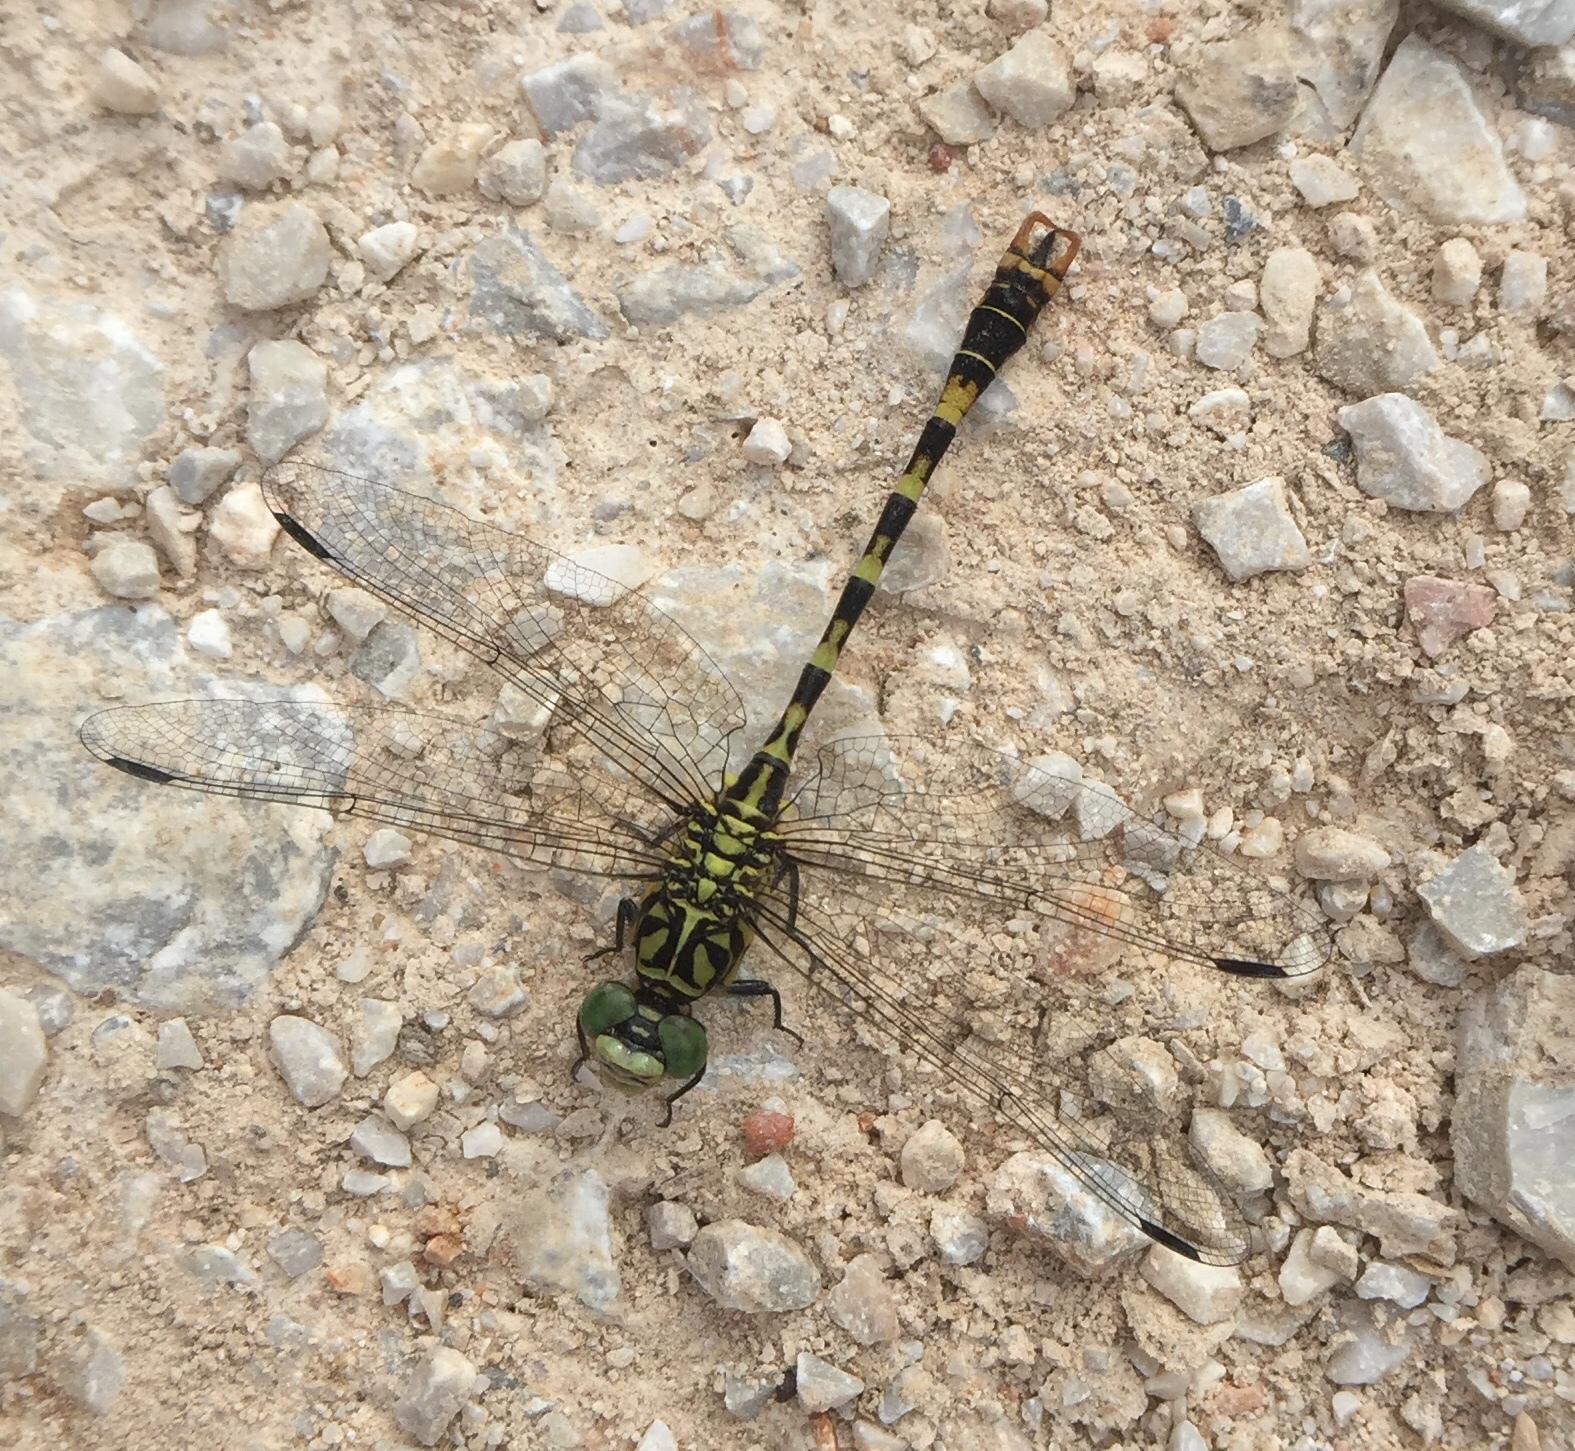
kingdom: Animalia
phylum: Arthropoda
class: Insecta
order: Odonata
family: Gomphidae
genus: Onychogomphus
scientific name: Onychogomphus forcipatus
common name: Small pincertail
